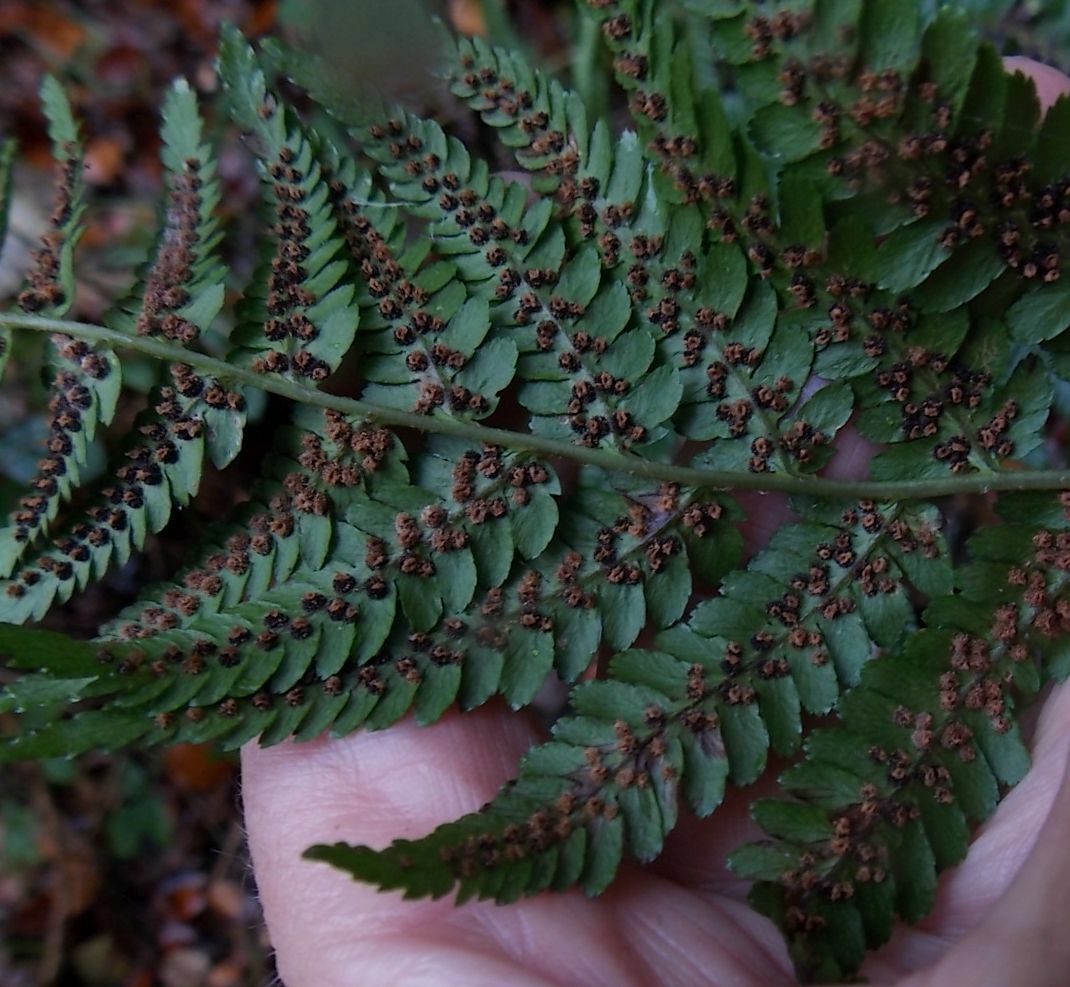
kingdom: Plantae
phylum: Tracheophyta
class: Polypodiopsida
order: Polypodiales
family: Dryopteridaceae
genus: Dryopteris
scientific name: Dryopteris filix-mas
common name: Male fern
